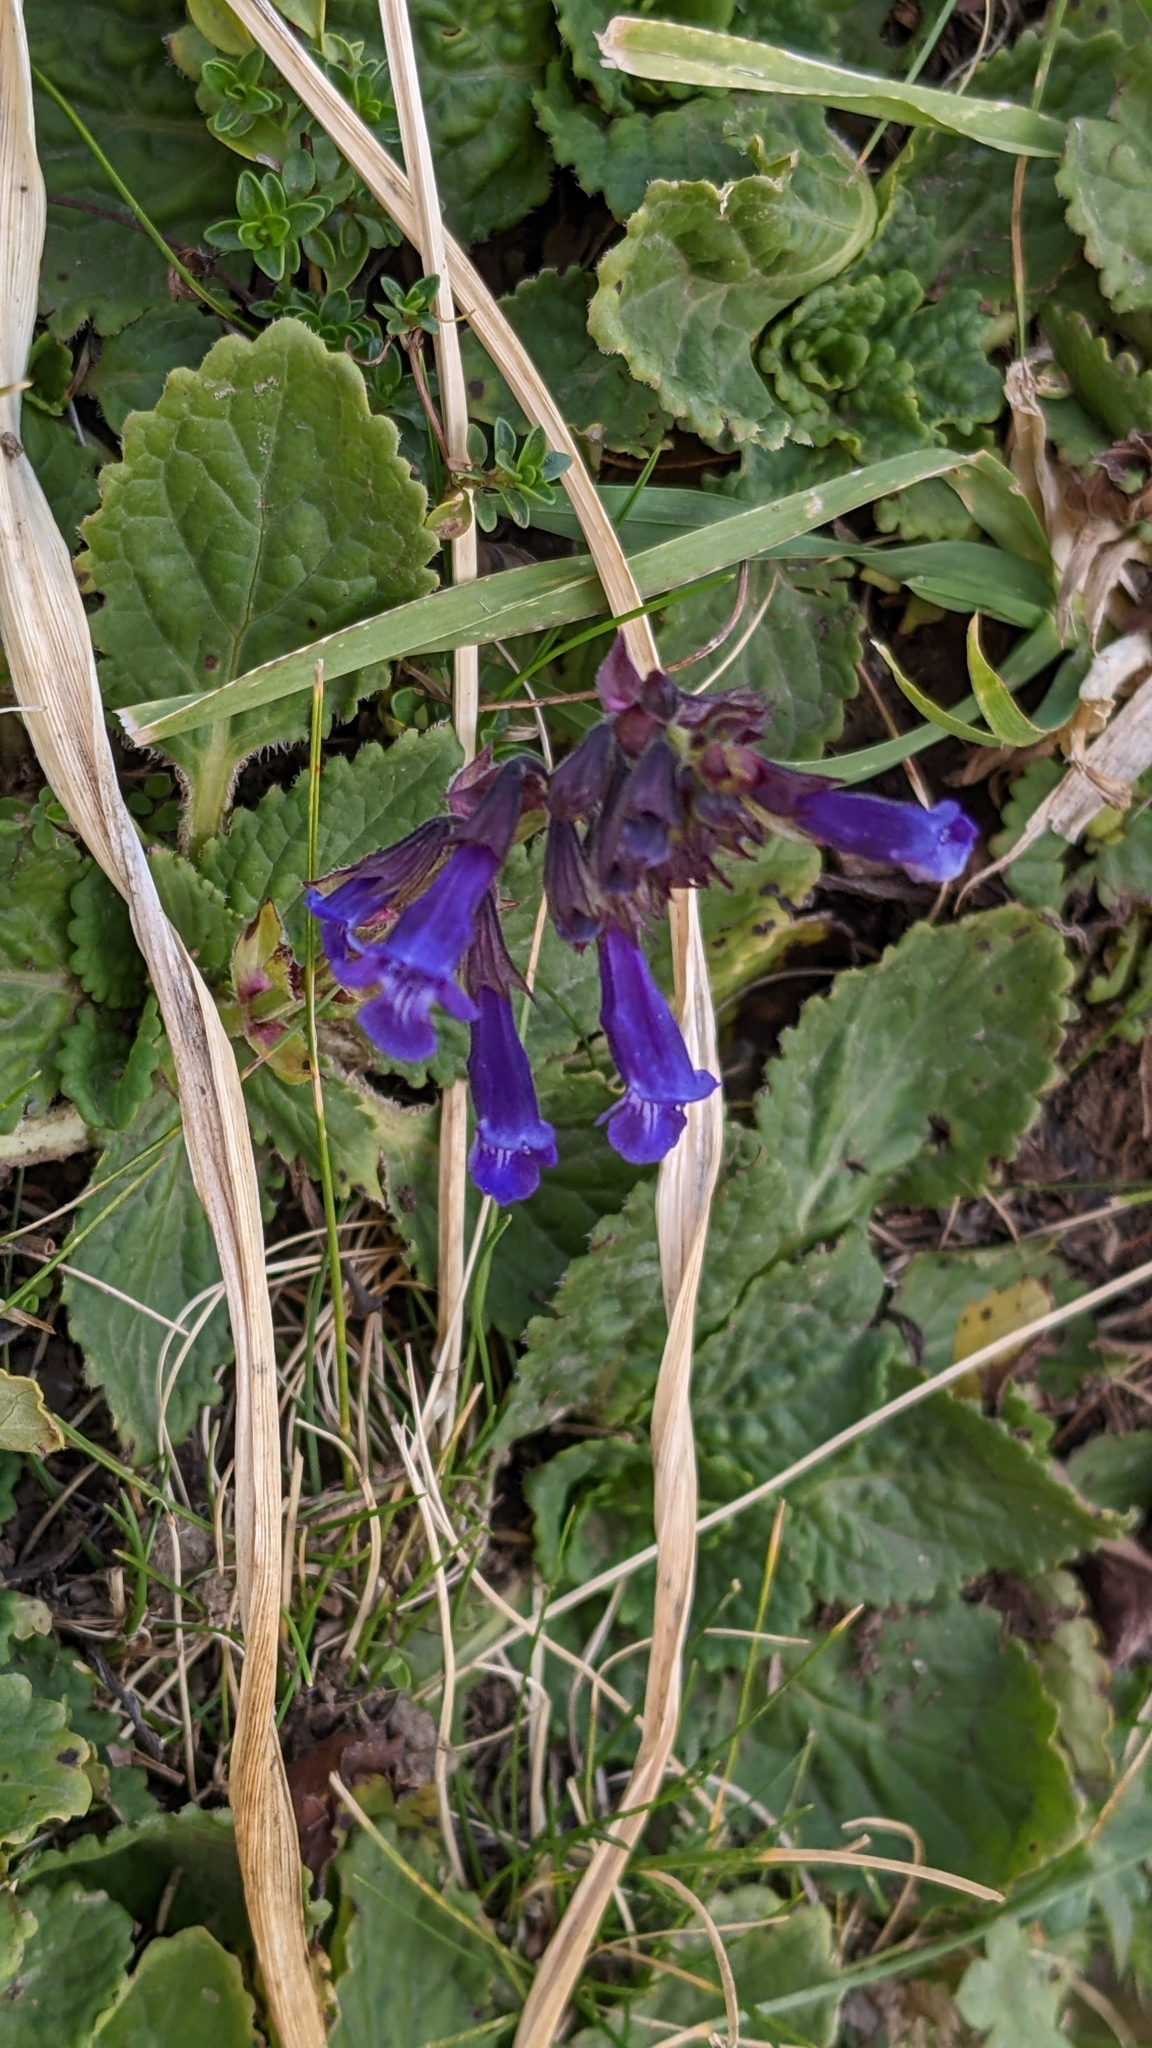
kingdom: Plantae
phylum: Tracheophyta
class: Magnoliopsida
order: Lamiales
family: Lamiaceae
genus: Horminum
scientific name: Horminum pyrenaicum
